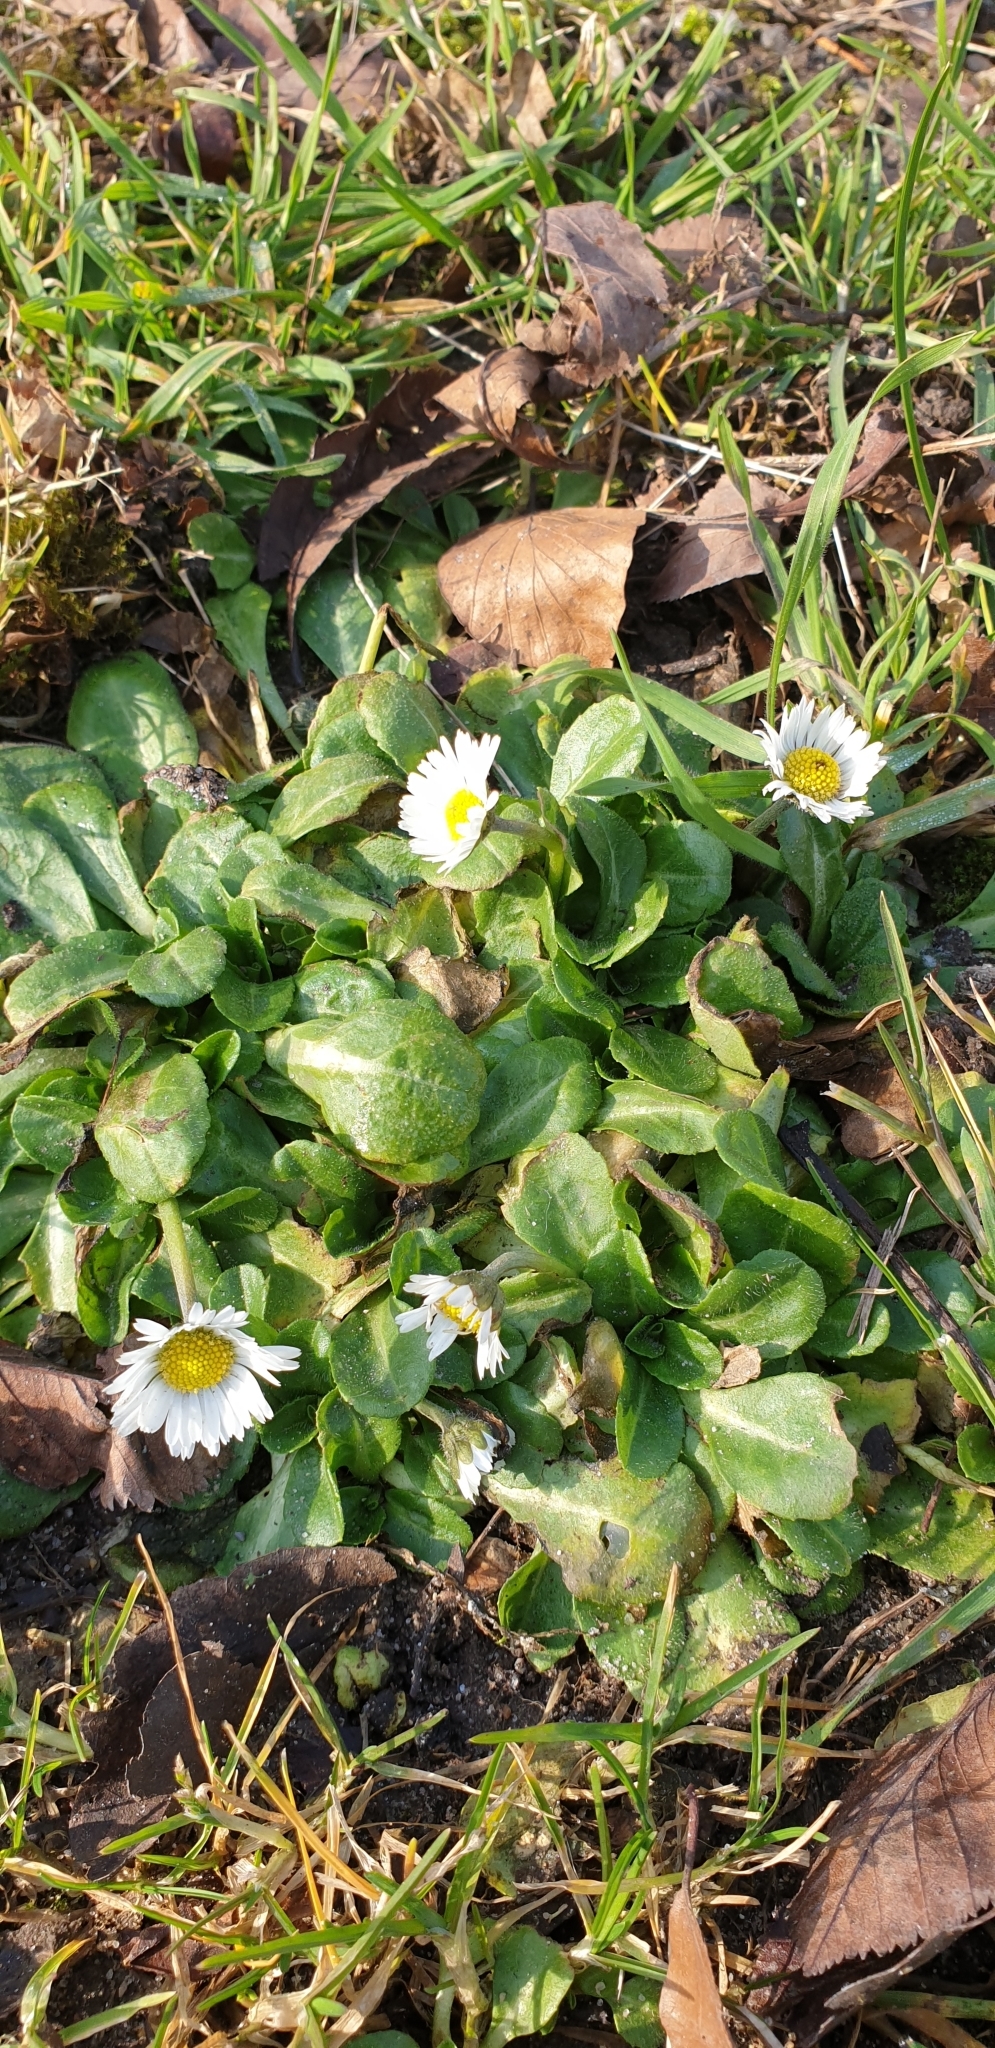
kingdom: Plantae
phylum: Tracheophyta
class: Magnoliopsida
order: Asterales
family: Asteraceae
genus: Bellis
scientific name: Bellis perennis
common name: Lawndaisy
